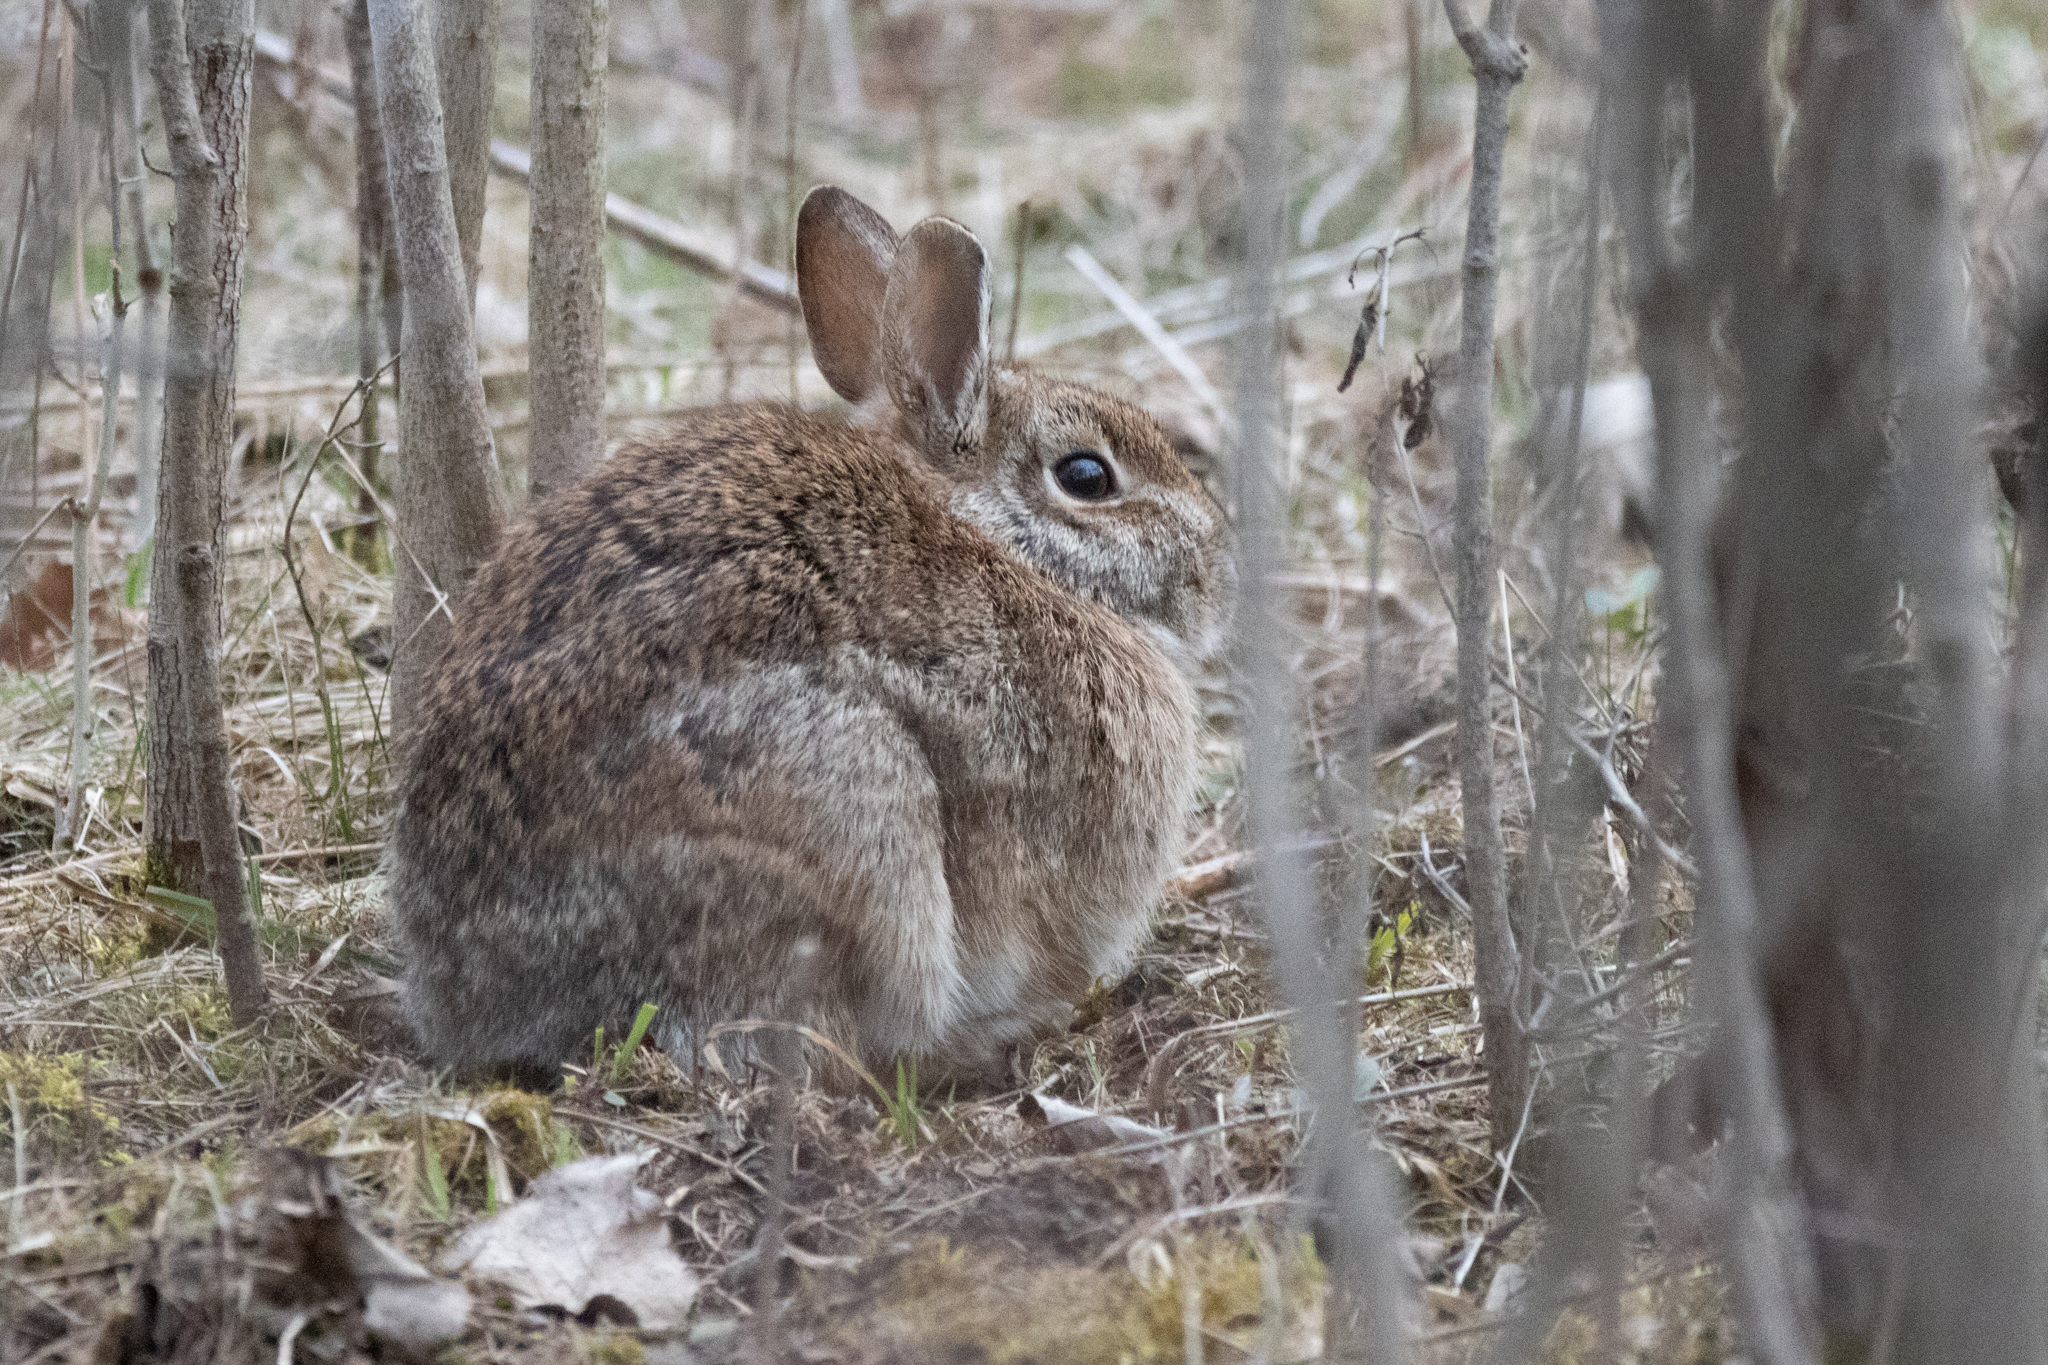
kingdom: Animalia
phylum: Chordata
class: Mammalia
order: Lagomorpha
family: Leporidae
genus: Sylvilagus
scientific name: Sylvilagus floridanus
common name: Eastern cottontail
